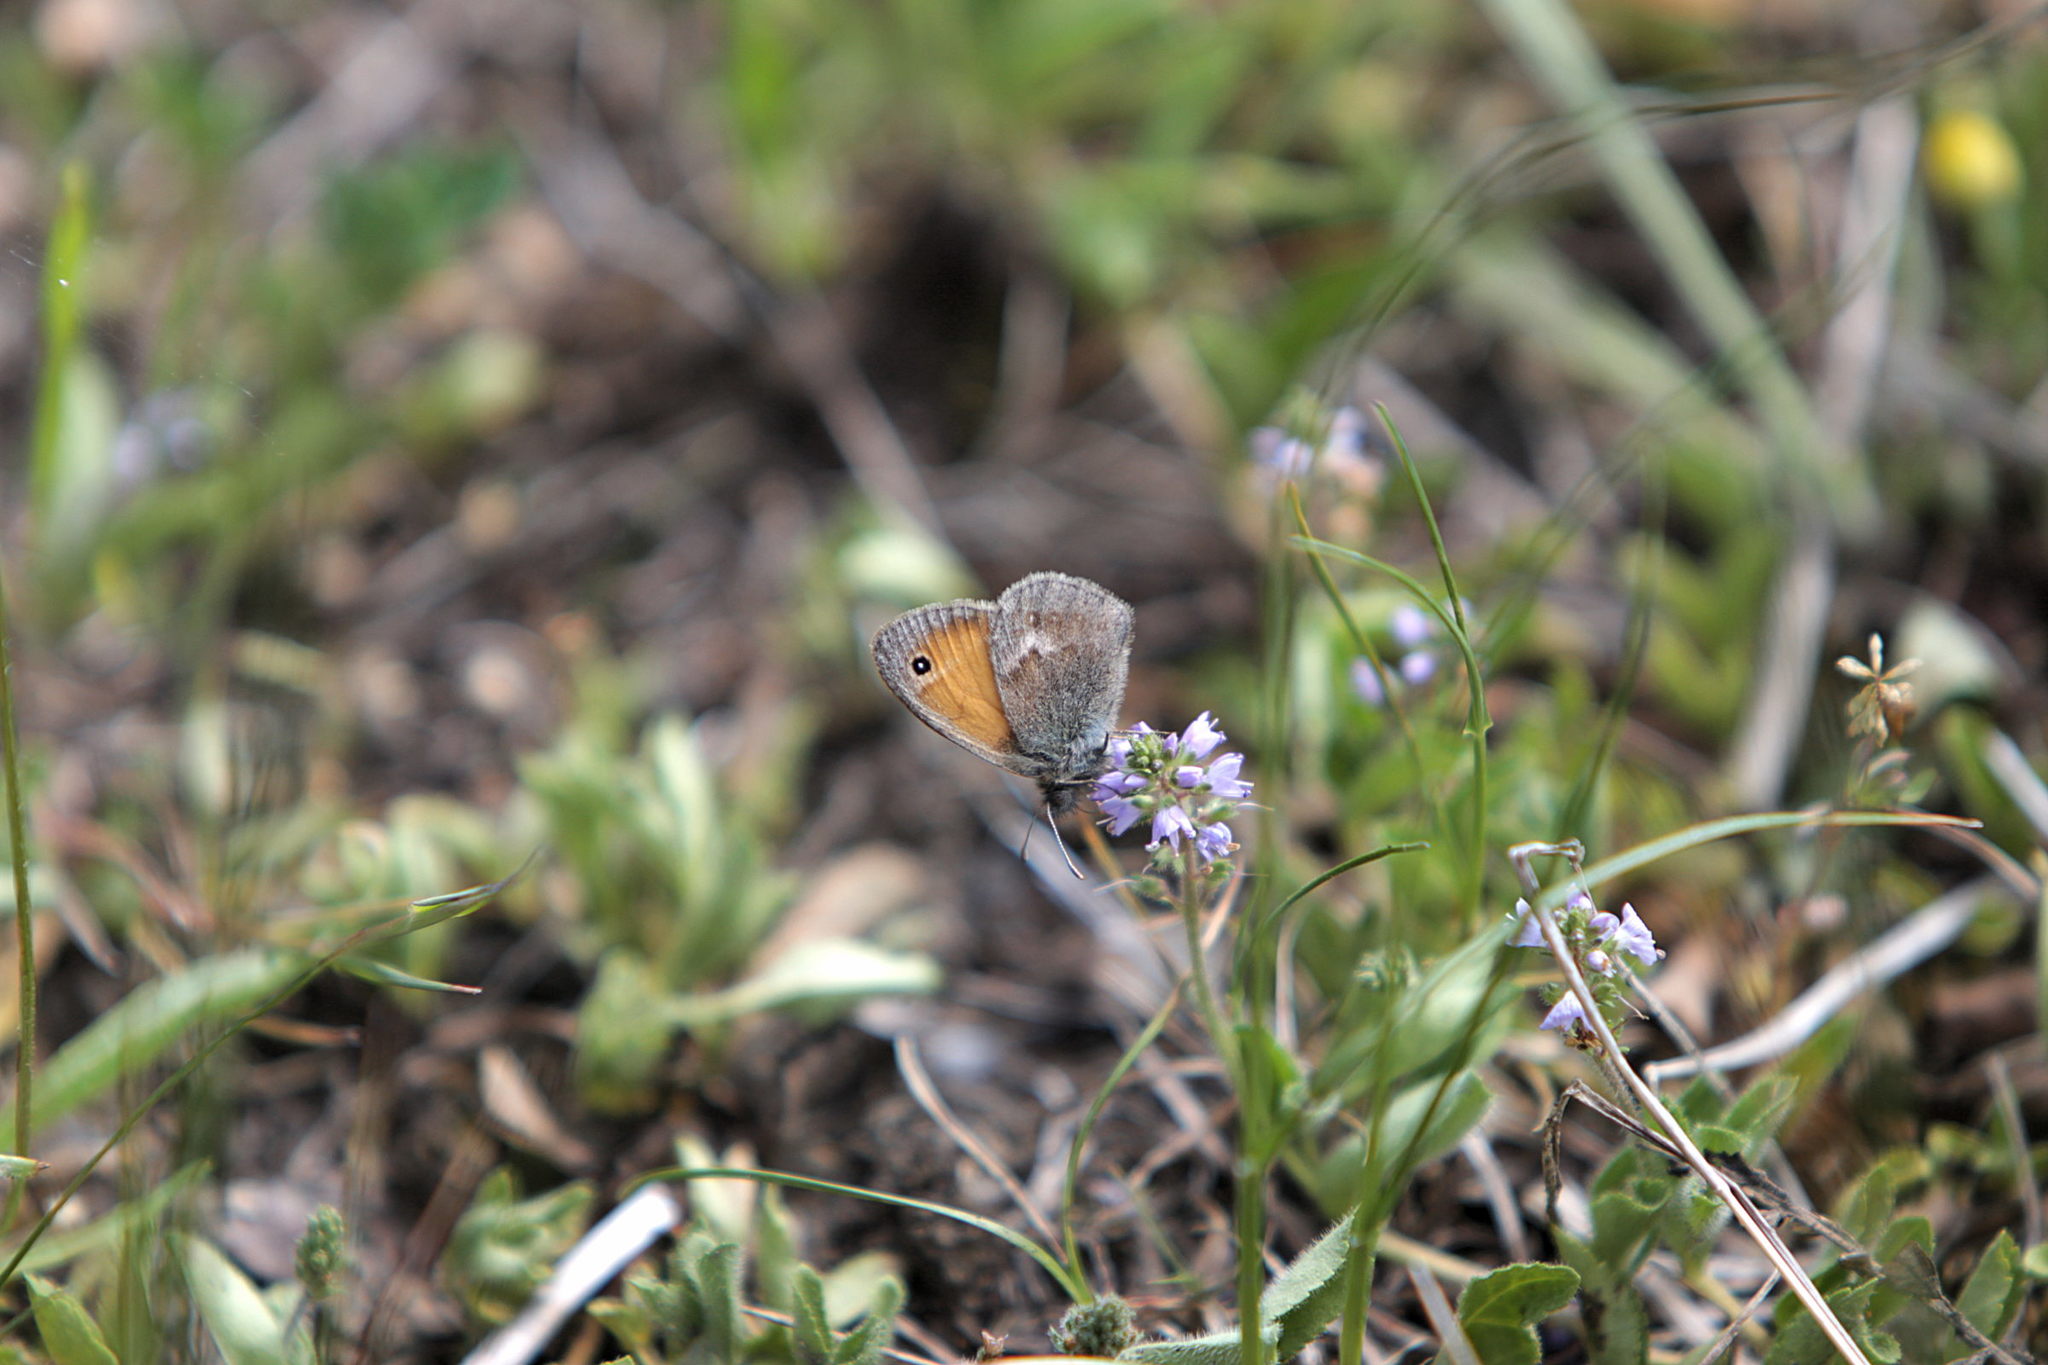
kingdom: Animalia
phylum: Arthropoda
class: Insecta
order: Lepidoptera
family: Nymphalidae
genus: Coenonympha
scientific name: Coenonympha pamphilus
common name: Small heath
